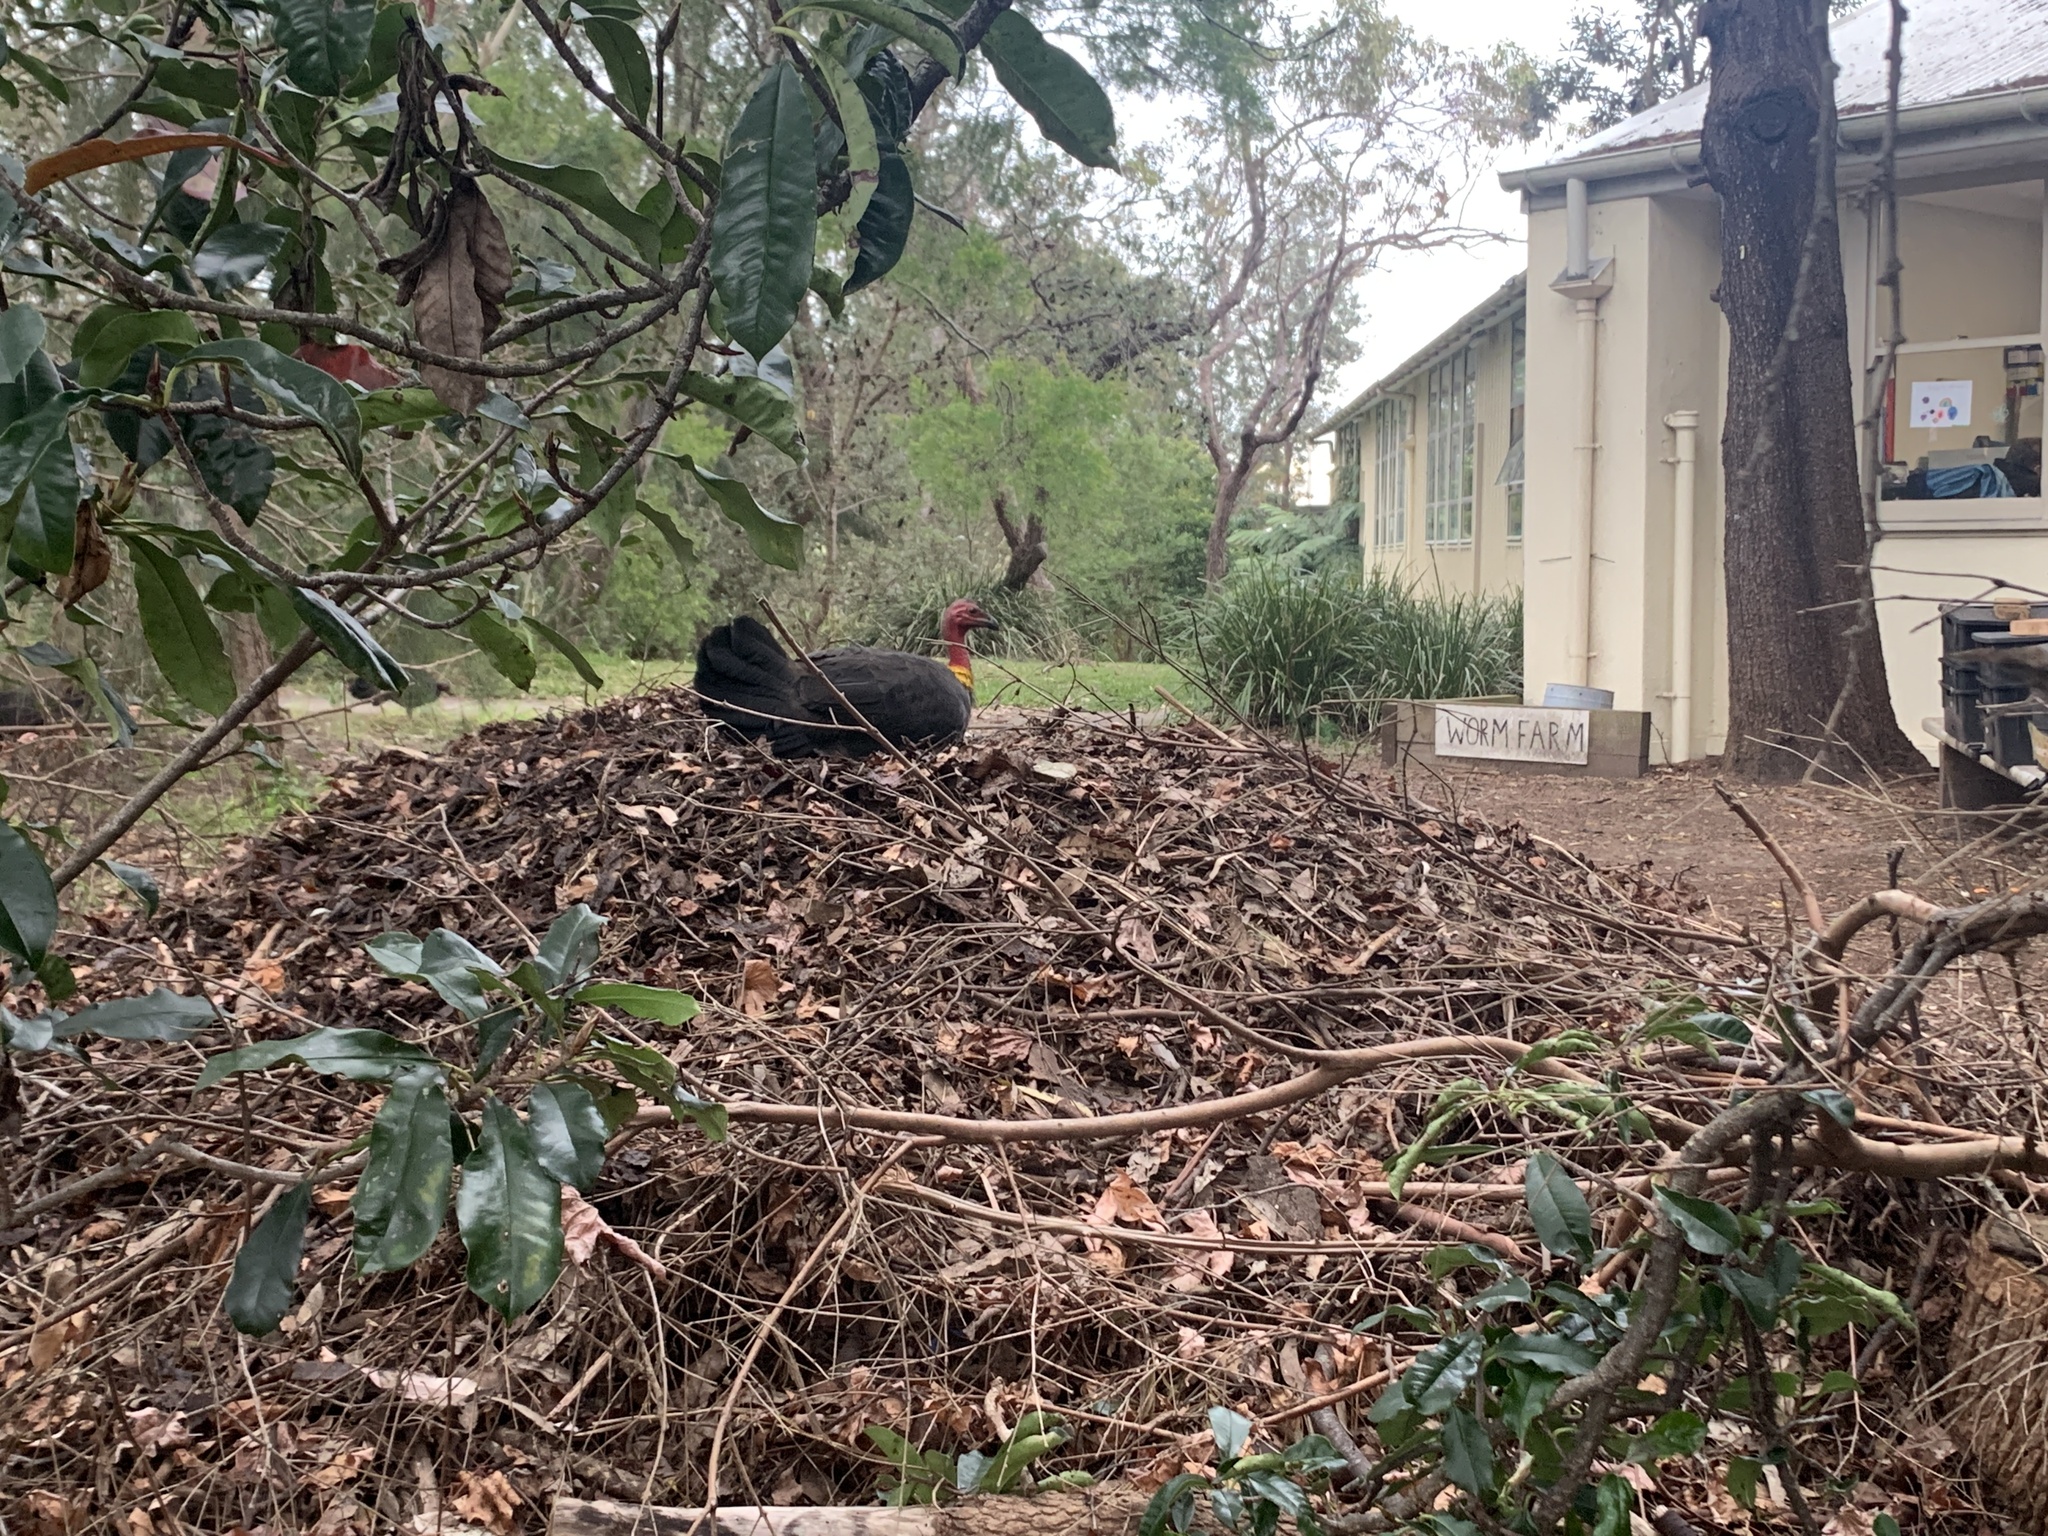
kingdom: Animalia
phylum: Chordata
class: Aves
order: Galliformes
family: Megapodiidae
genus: Alectura
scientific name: Alectura lathami
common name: Australian brushturkey
